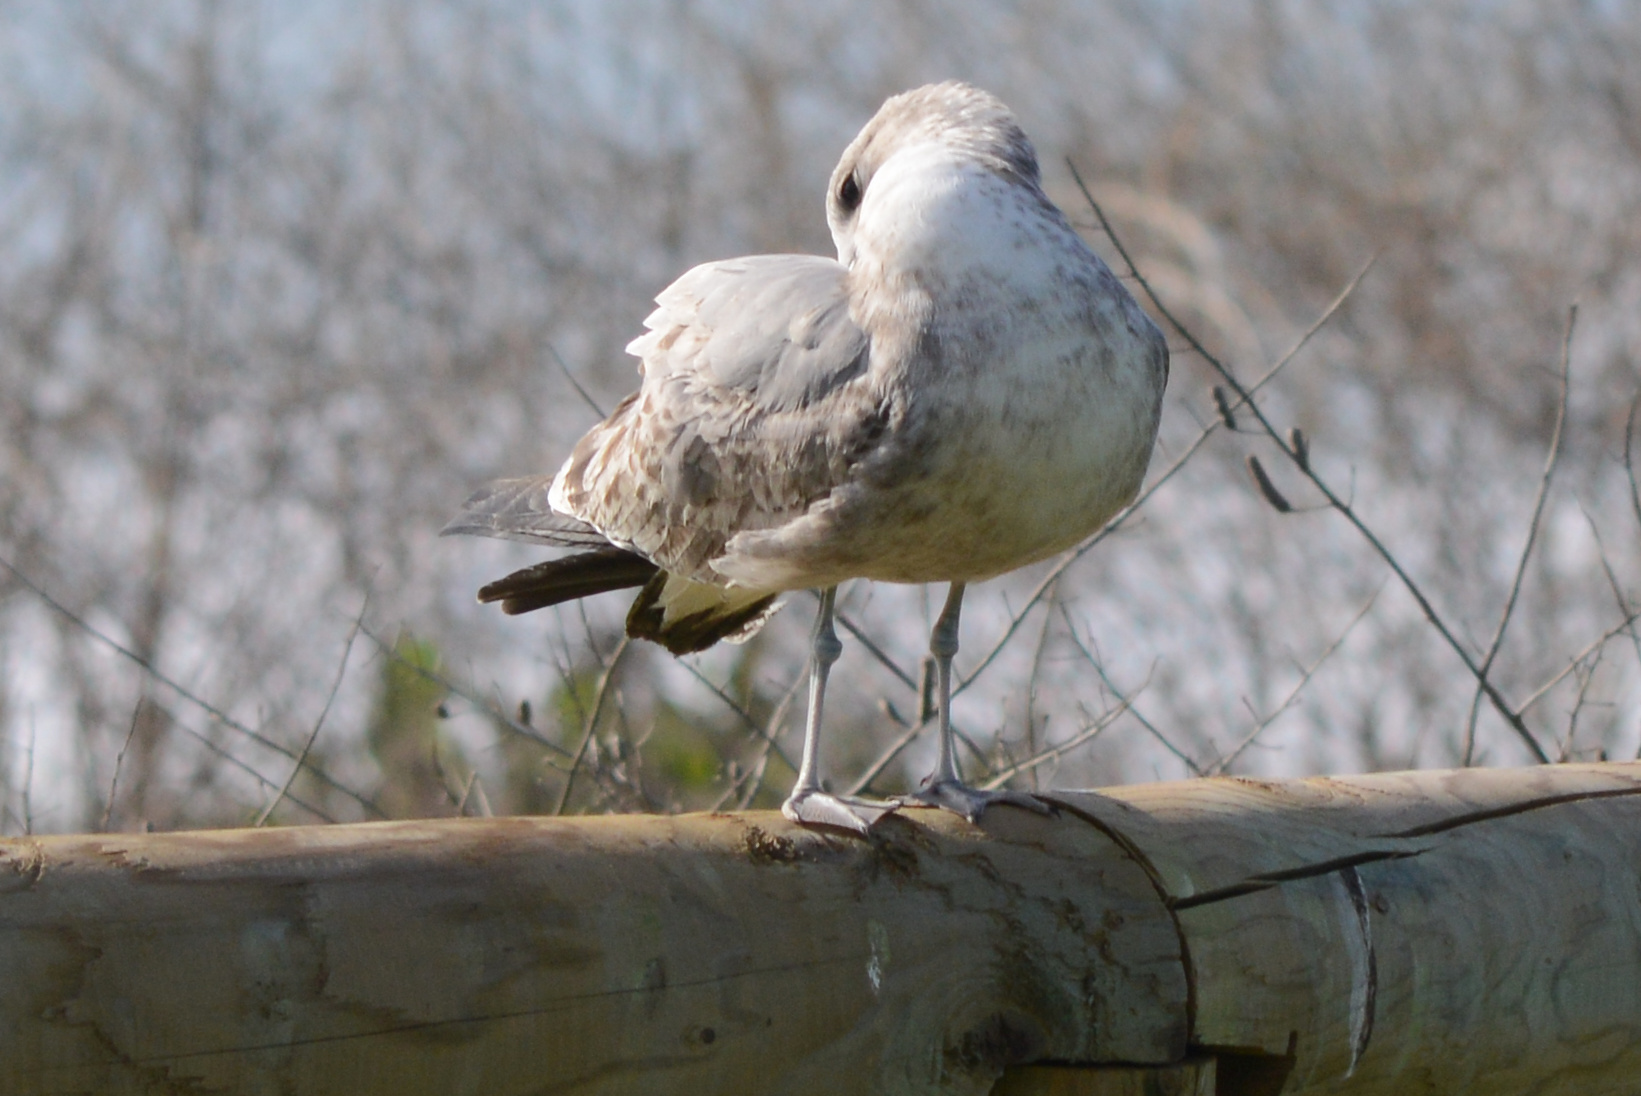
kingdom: Animalia
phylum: Chordata
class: Aves
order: Charadriiformes
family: Laridae
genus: Larus
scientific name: Larus californicus
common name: California gull
